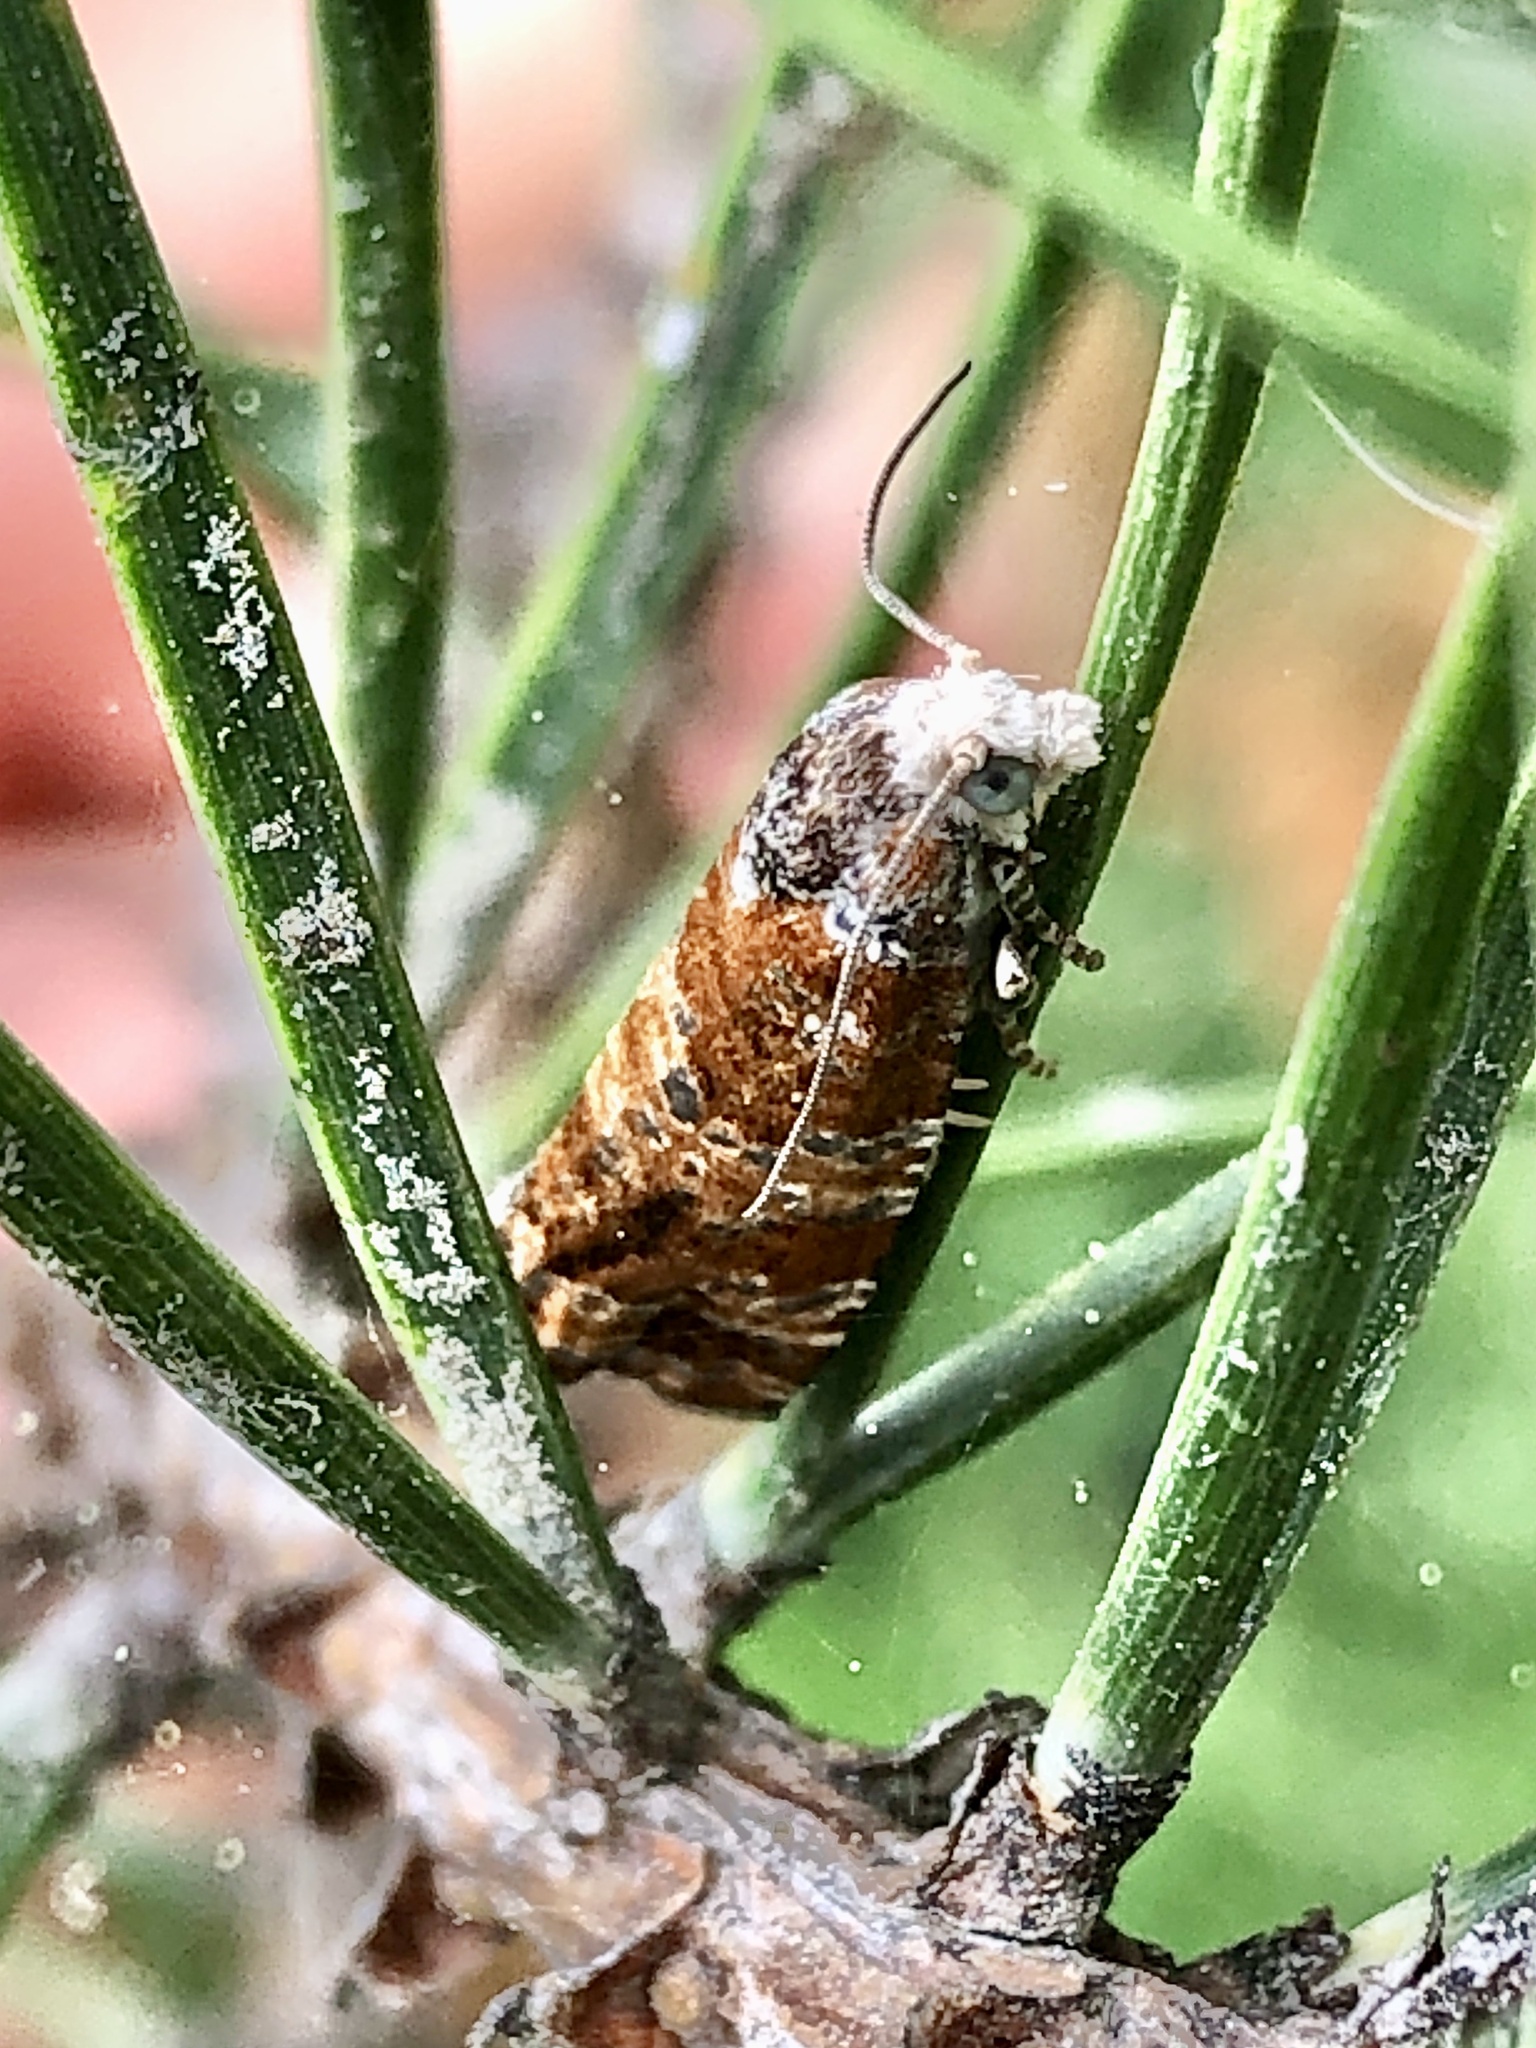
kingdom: Animalia
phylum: Arthropoda
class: Insecta
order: Lepidoptera
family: Tortricidae
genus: Retinia
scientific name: Retinia albicapitana
